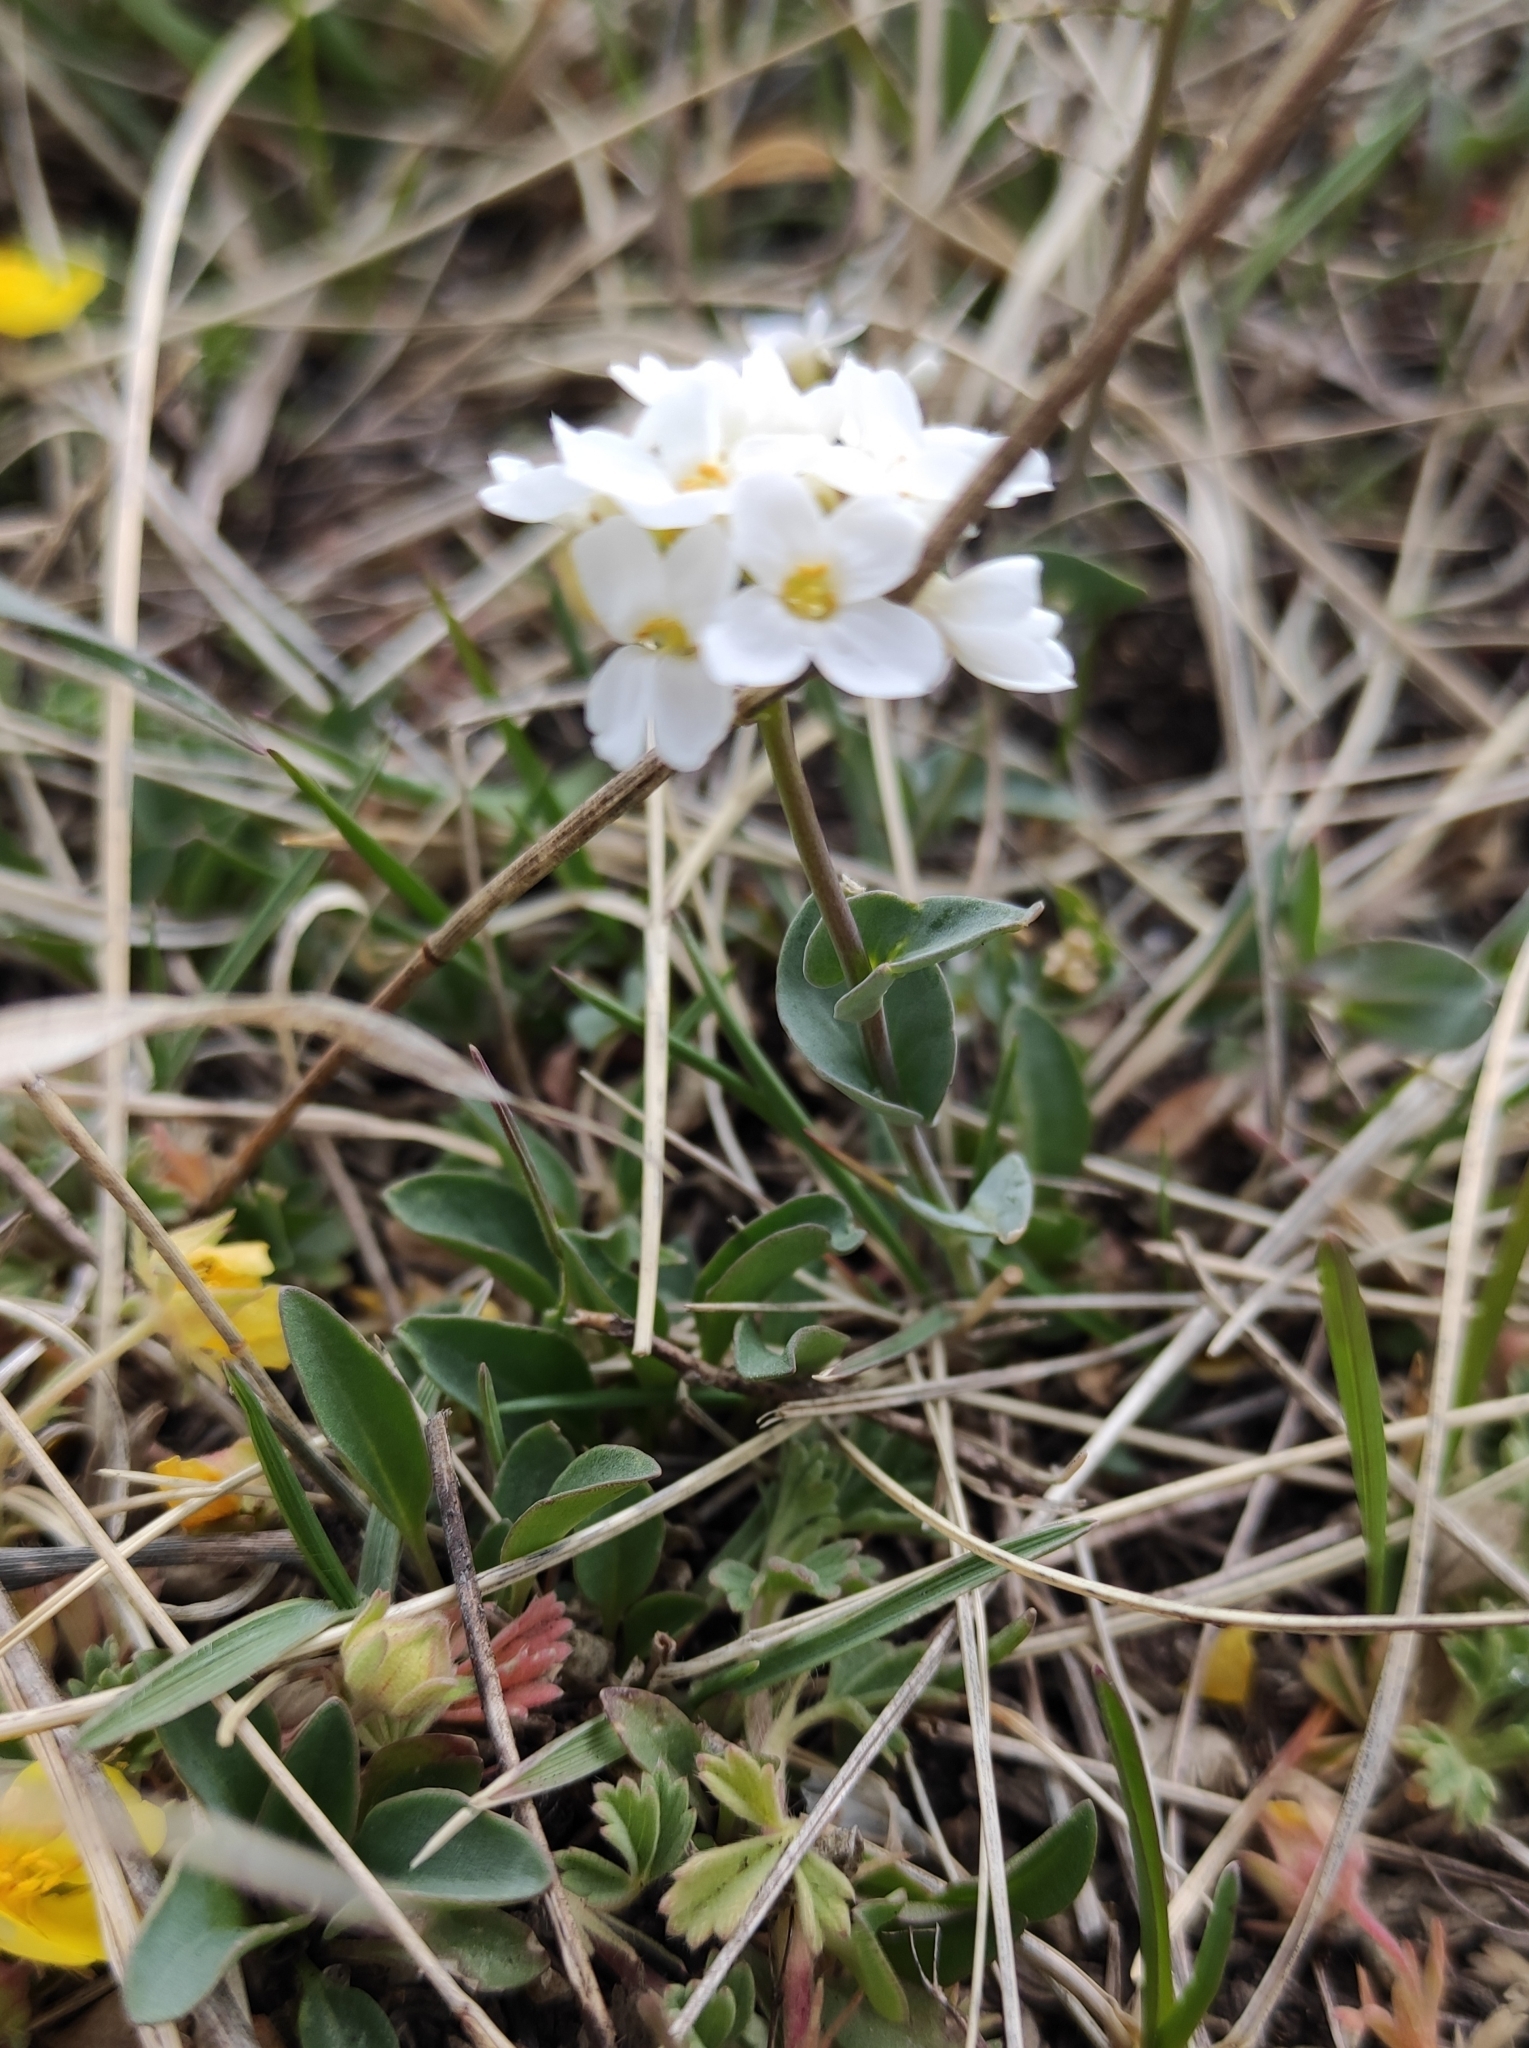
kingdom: Plantae
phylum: Tracheophyta
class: Magnoliopsida
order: Brassicales
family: Brassicaceae
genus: Noccaea
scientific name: Noccaea thlaspidioides
